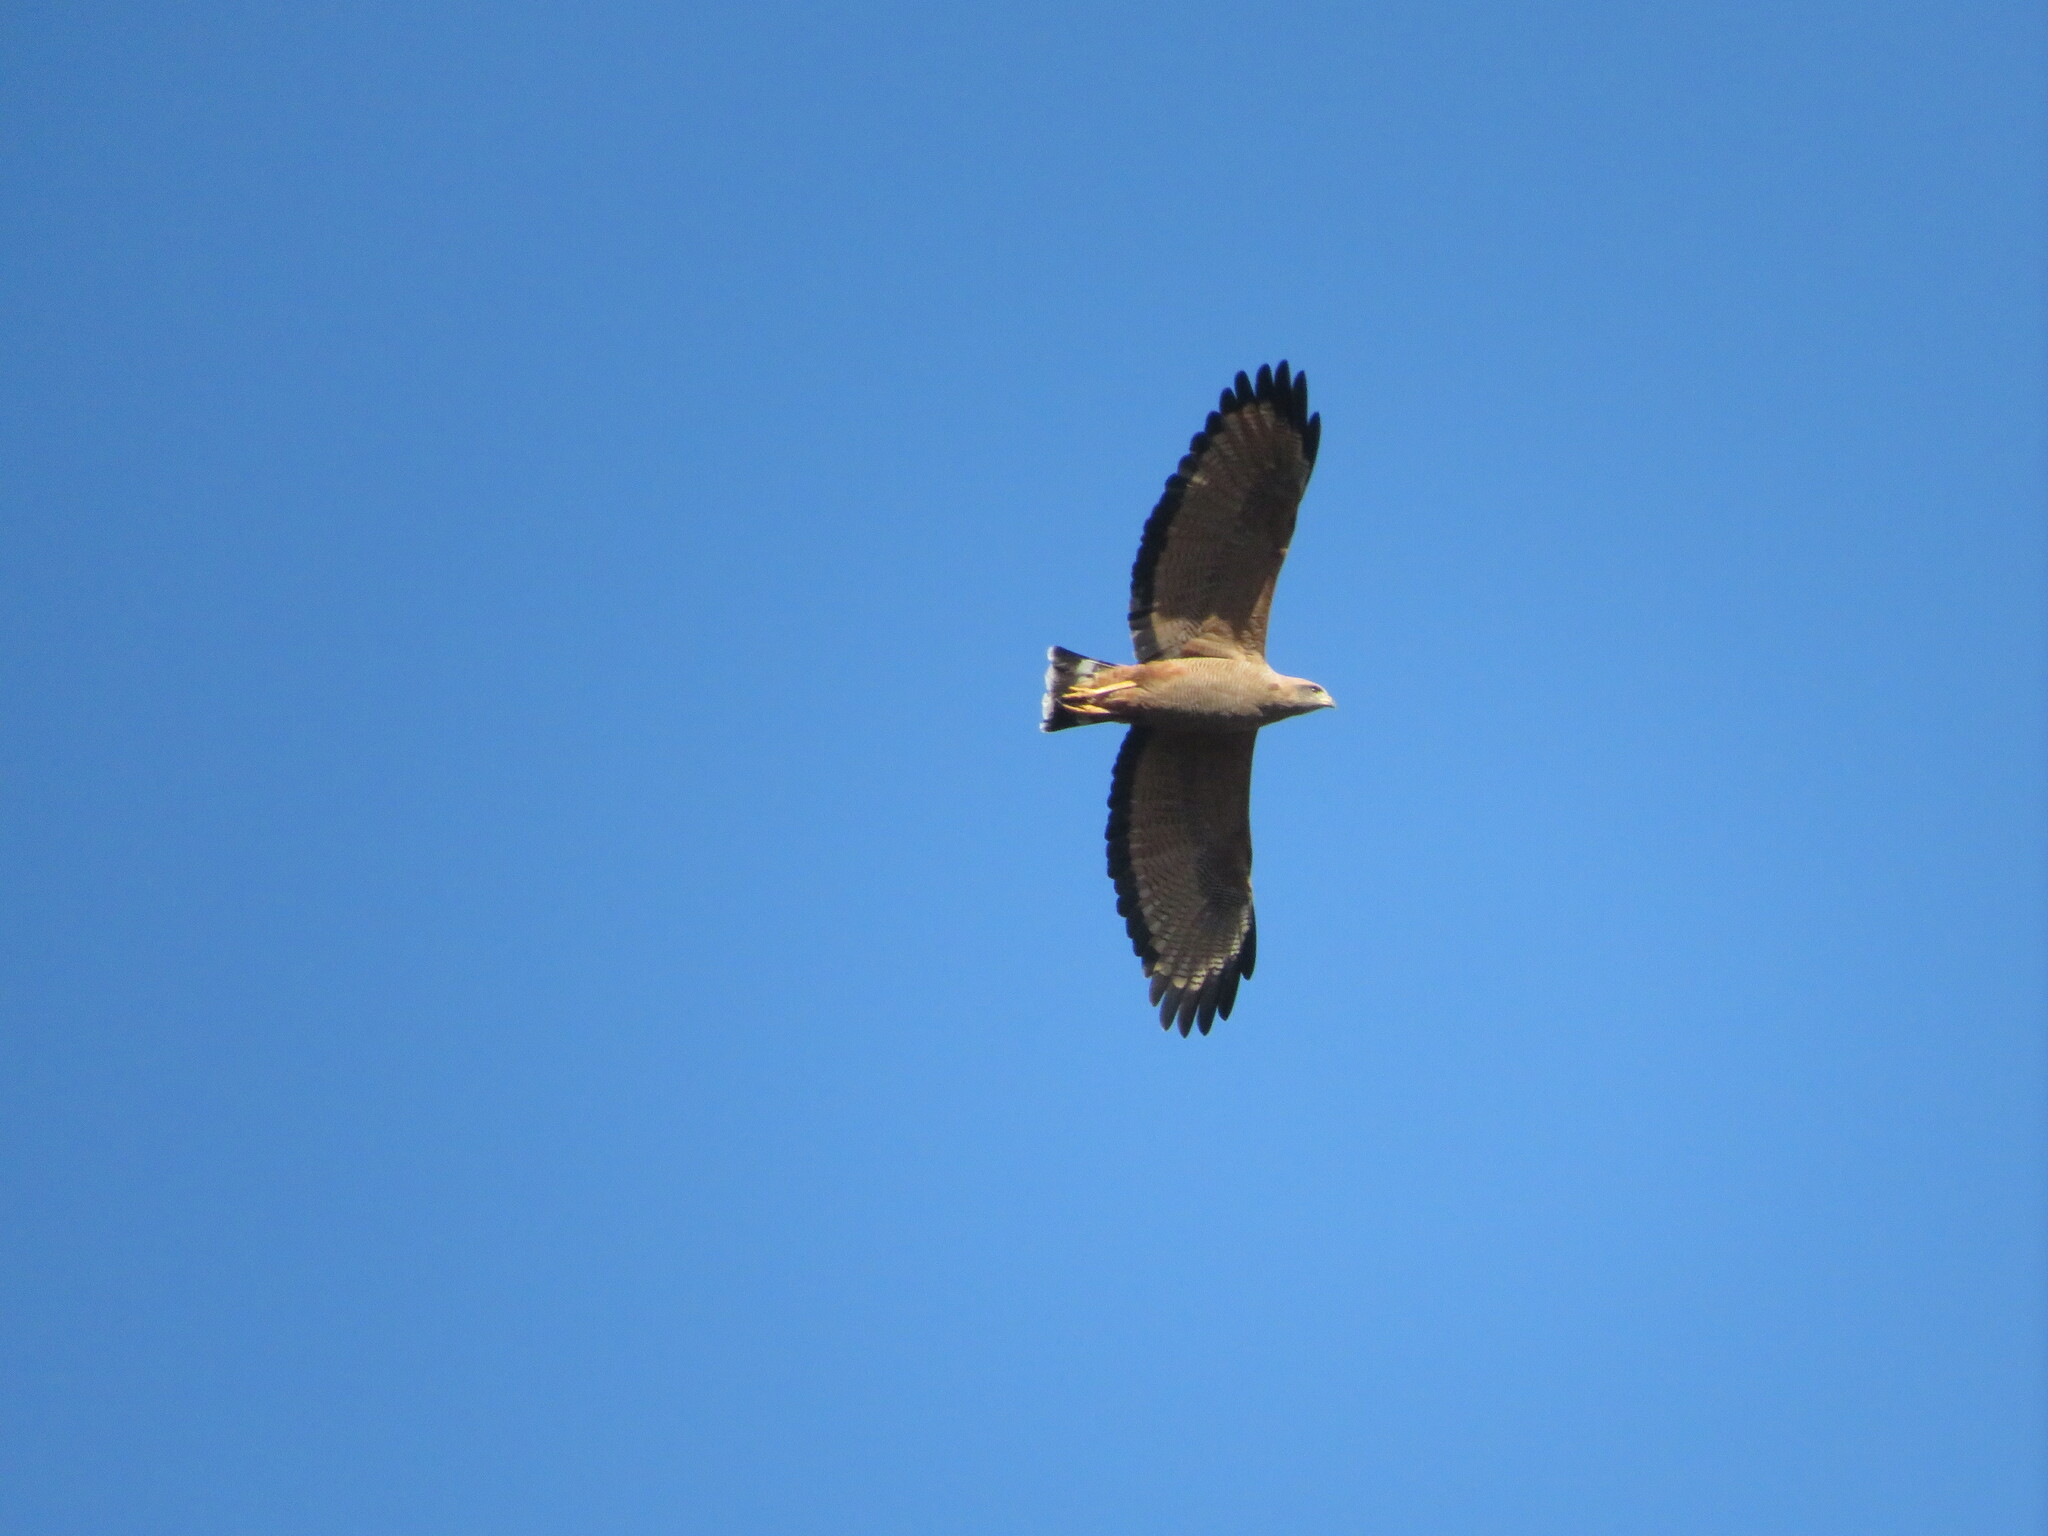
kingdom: Animalia
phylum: Chordata
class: Aves
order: Accipitriformes
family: Accipitridae
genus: Buteogallus
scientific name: Buteogallus meridionalis
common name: Savanna hawk
